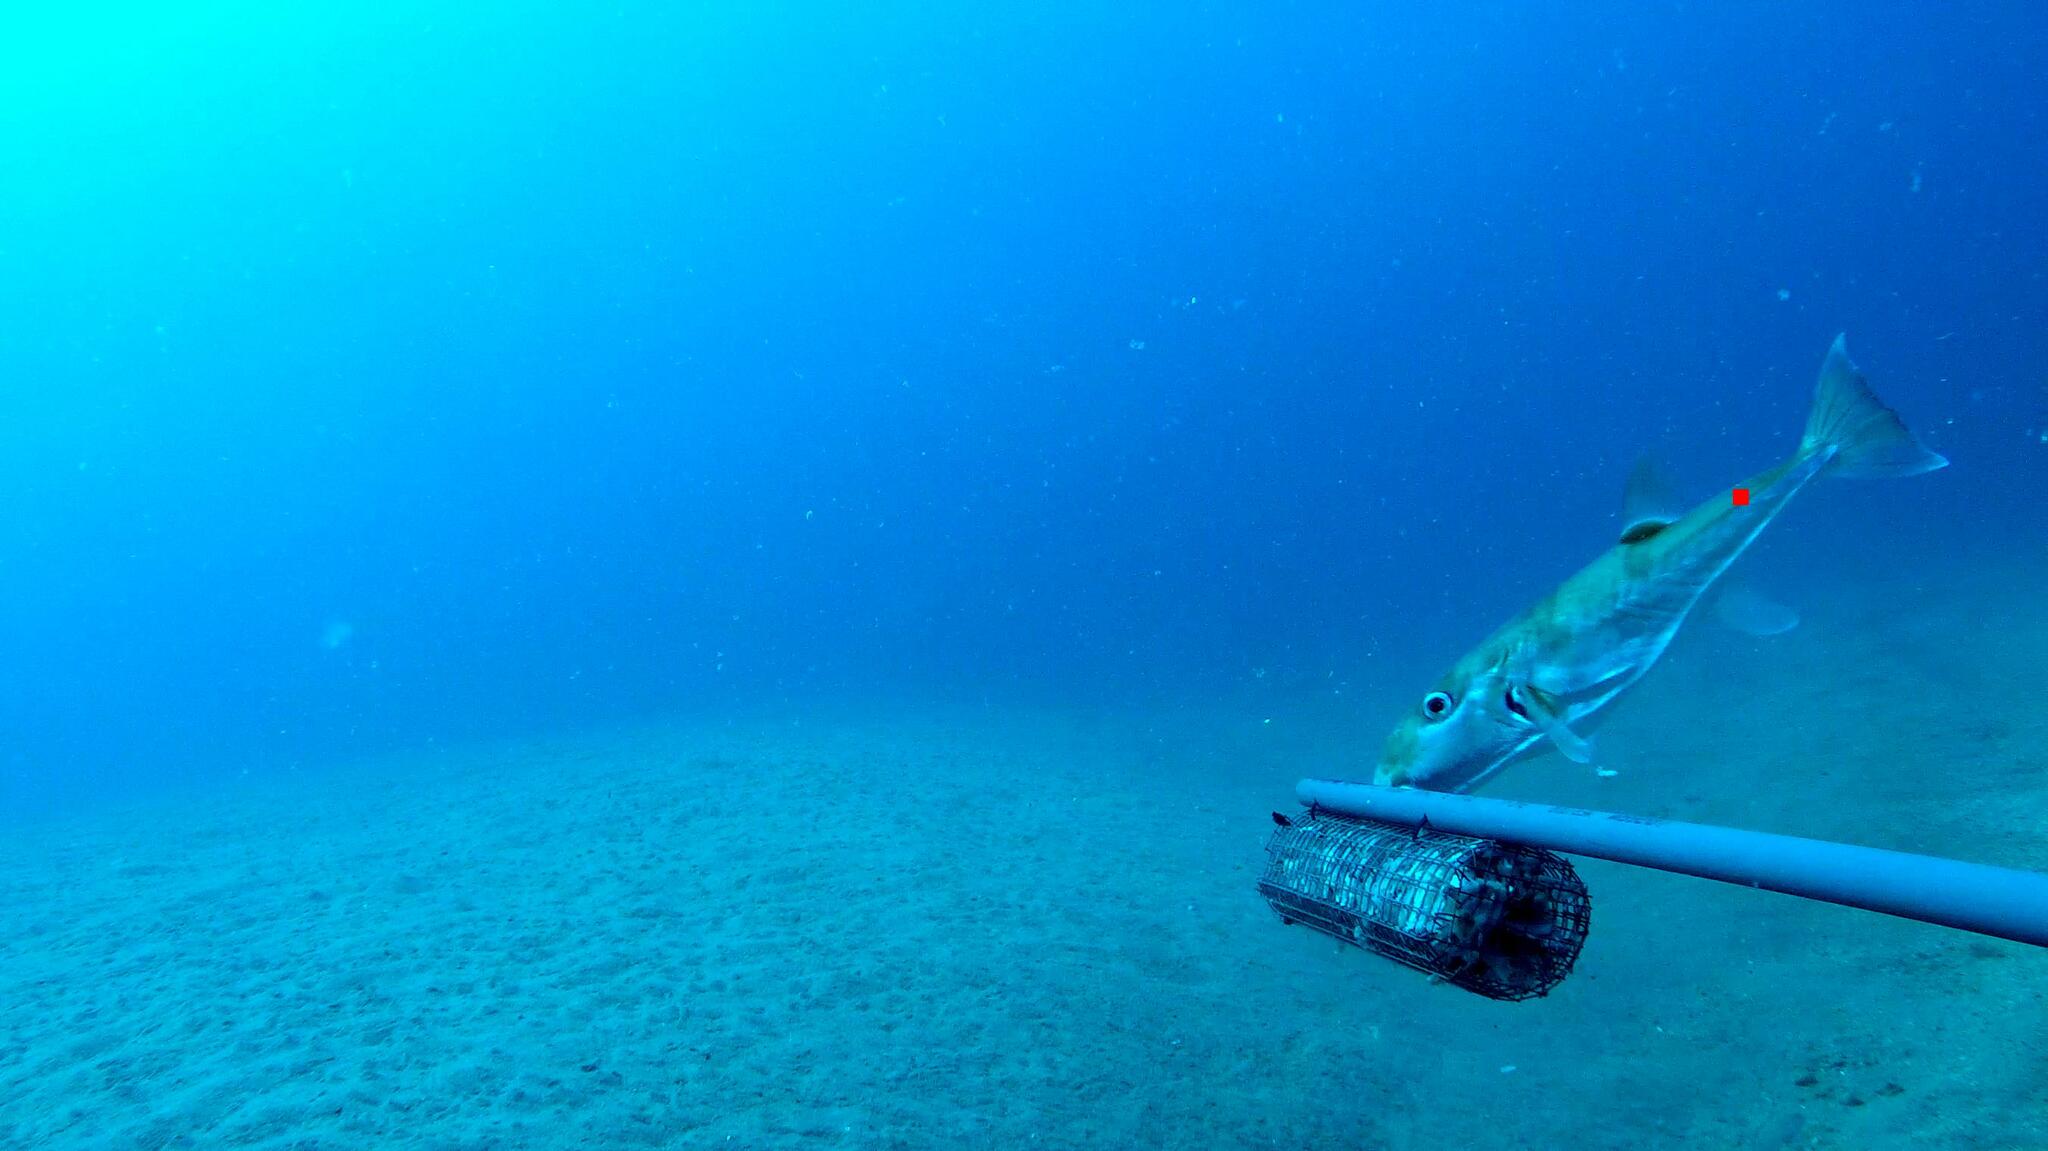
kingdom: Animalia
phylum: Chordata
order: Tetraodontiformes
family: Tetraodontidae
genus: Lagocephalus
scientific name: Lagocephalus guentheri
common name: Diamondback puffer
